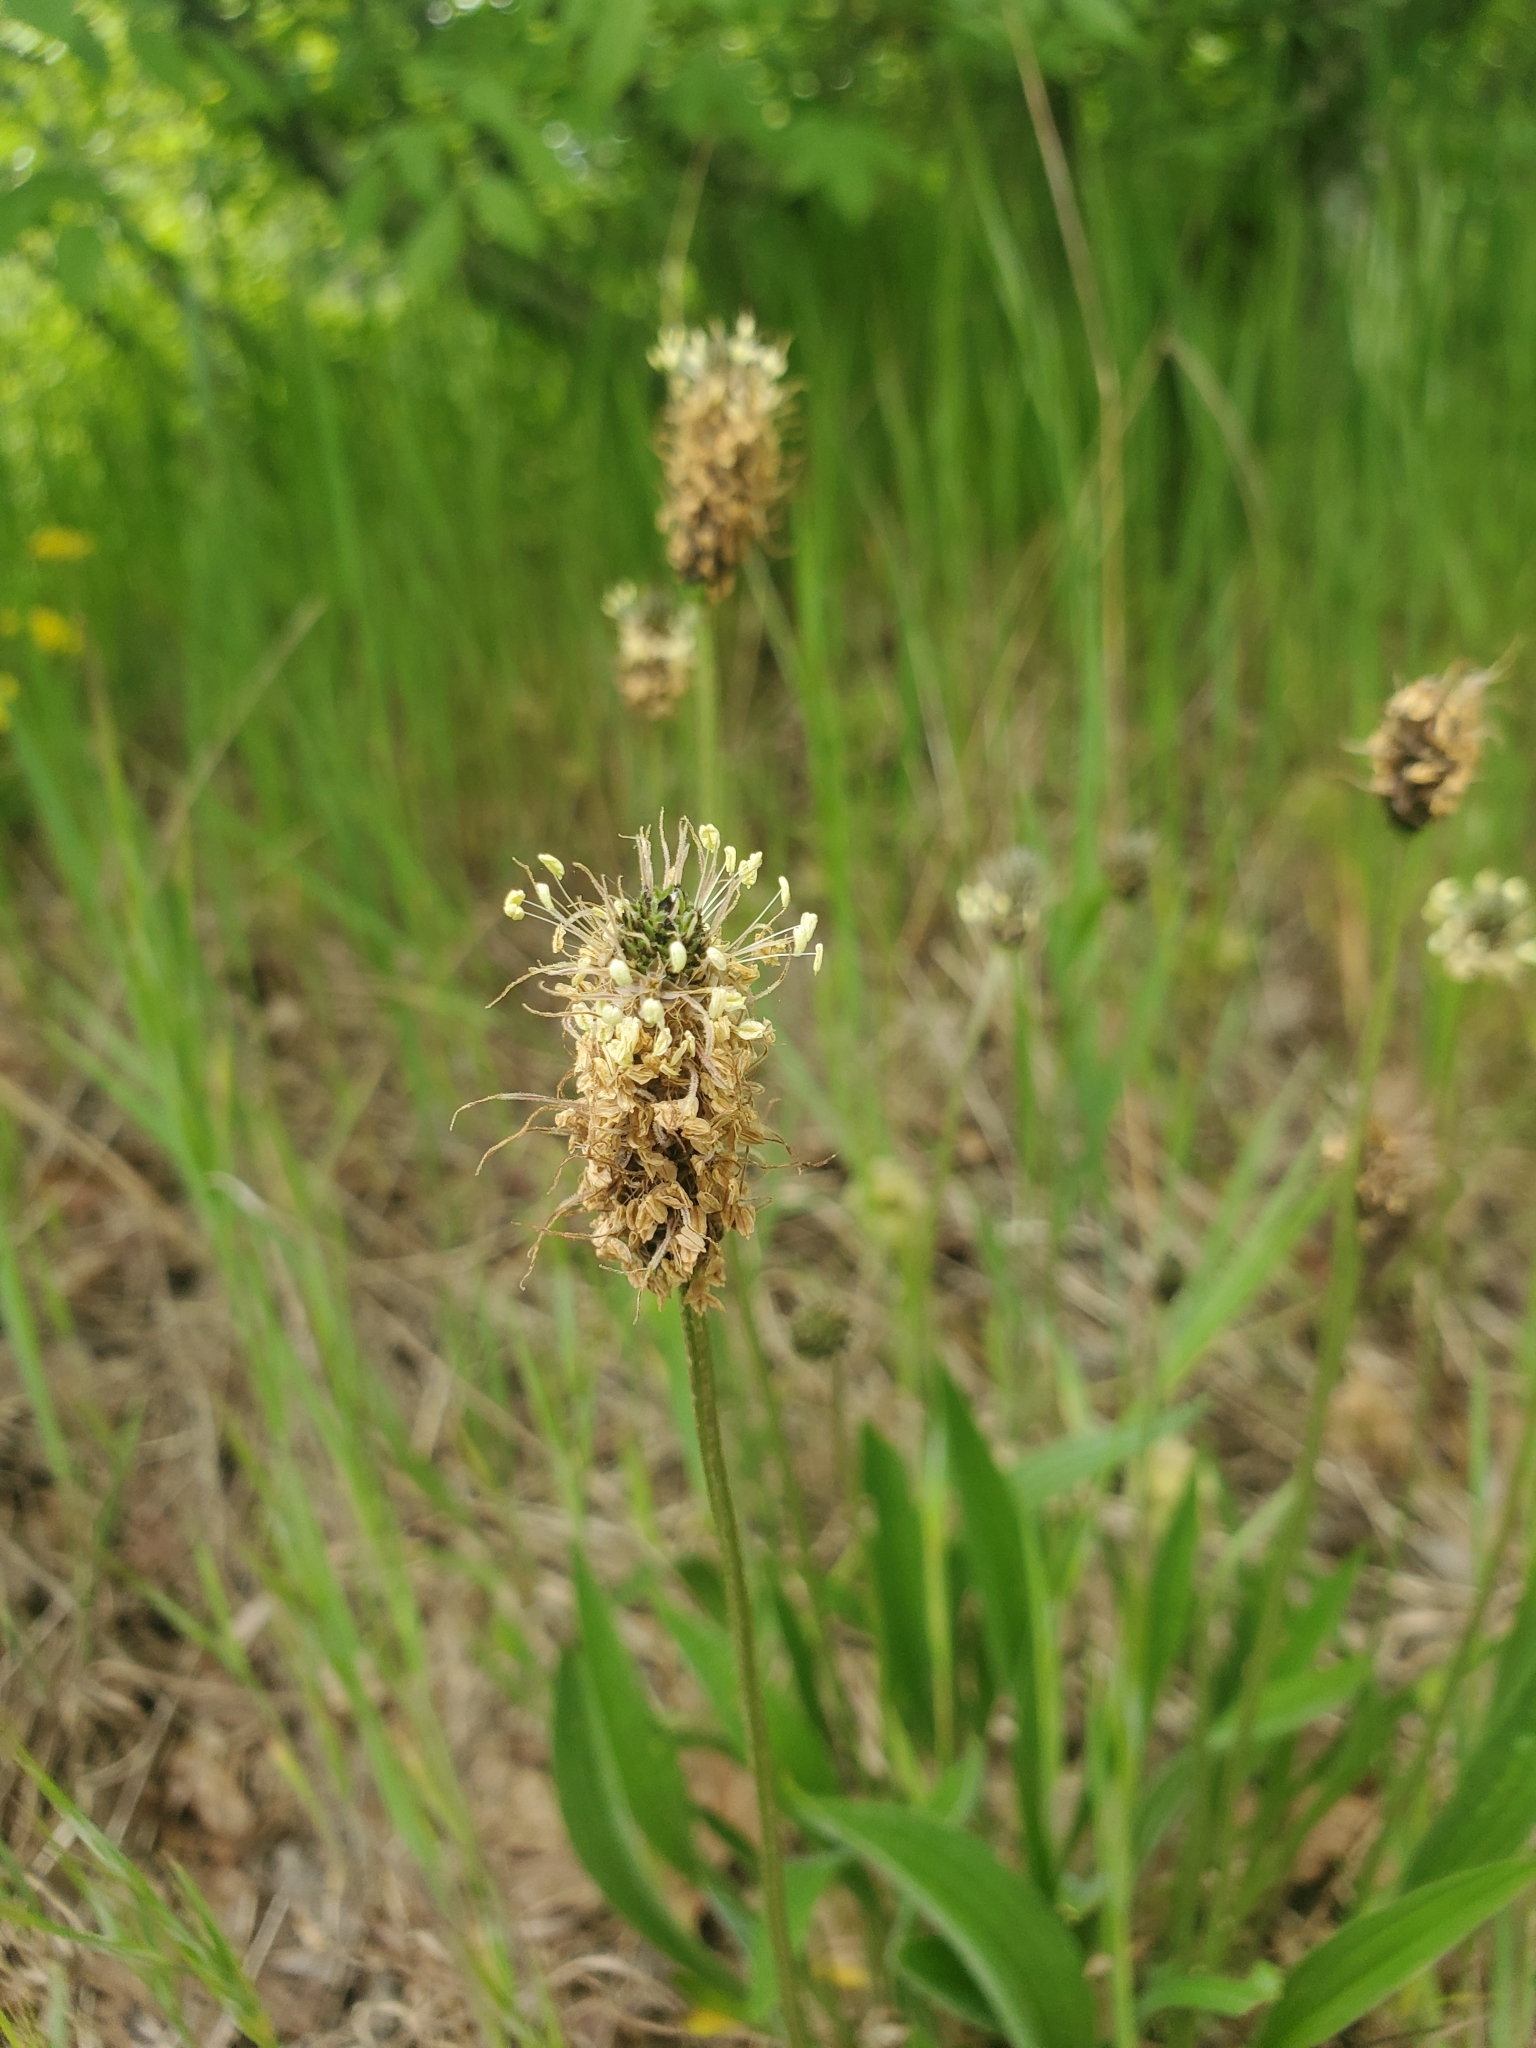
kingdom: Plantae
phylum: Tracheophyta
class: Magnoliopsida
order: Lamiales
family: Plantaginaceae
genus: Plantago
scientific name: Plantago lanceolata
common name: Ribwort plantain
